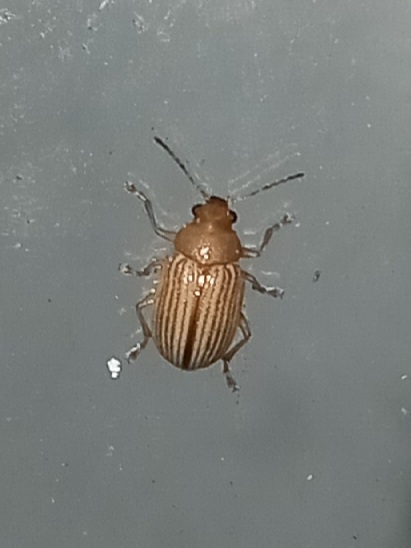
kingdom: Animalia
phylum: Arthropoda
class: Insecta
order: Coleoptera
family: Chrysomelidae
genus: Colaspis
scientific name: Colaspis brunnea
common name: Grape colaspis
